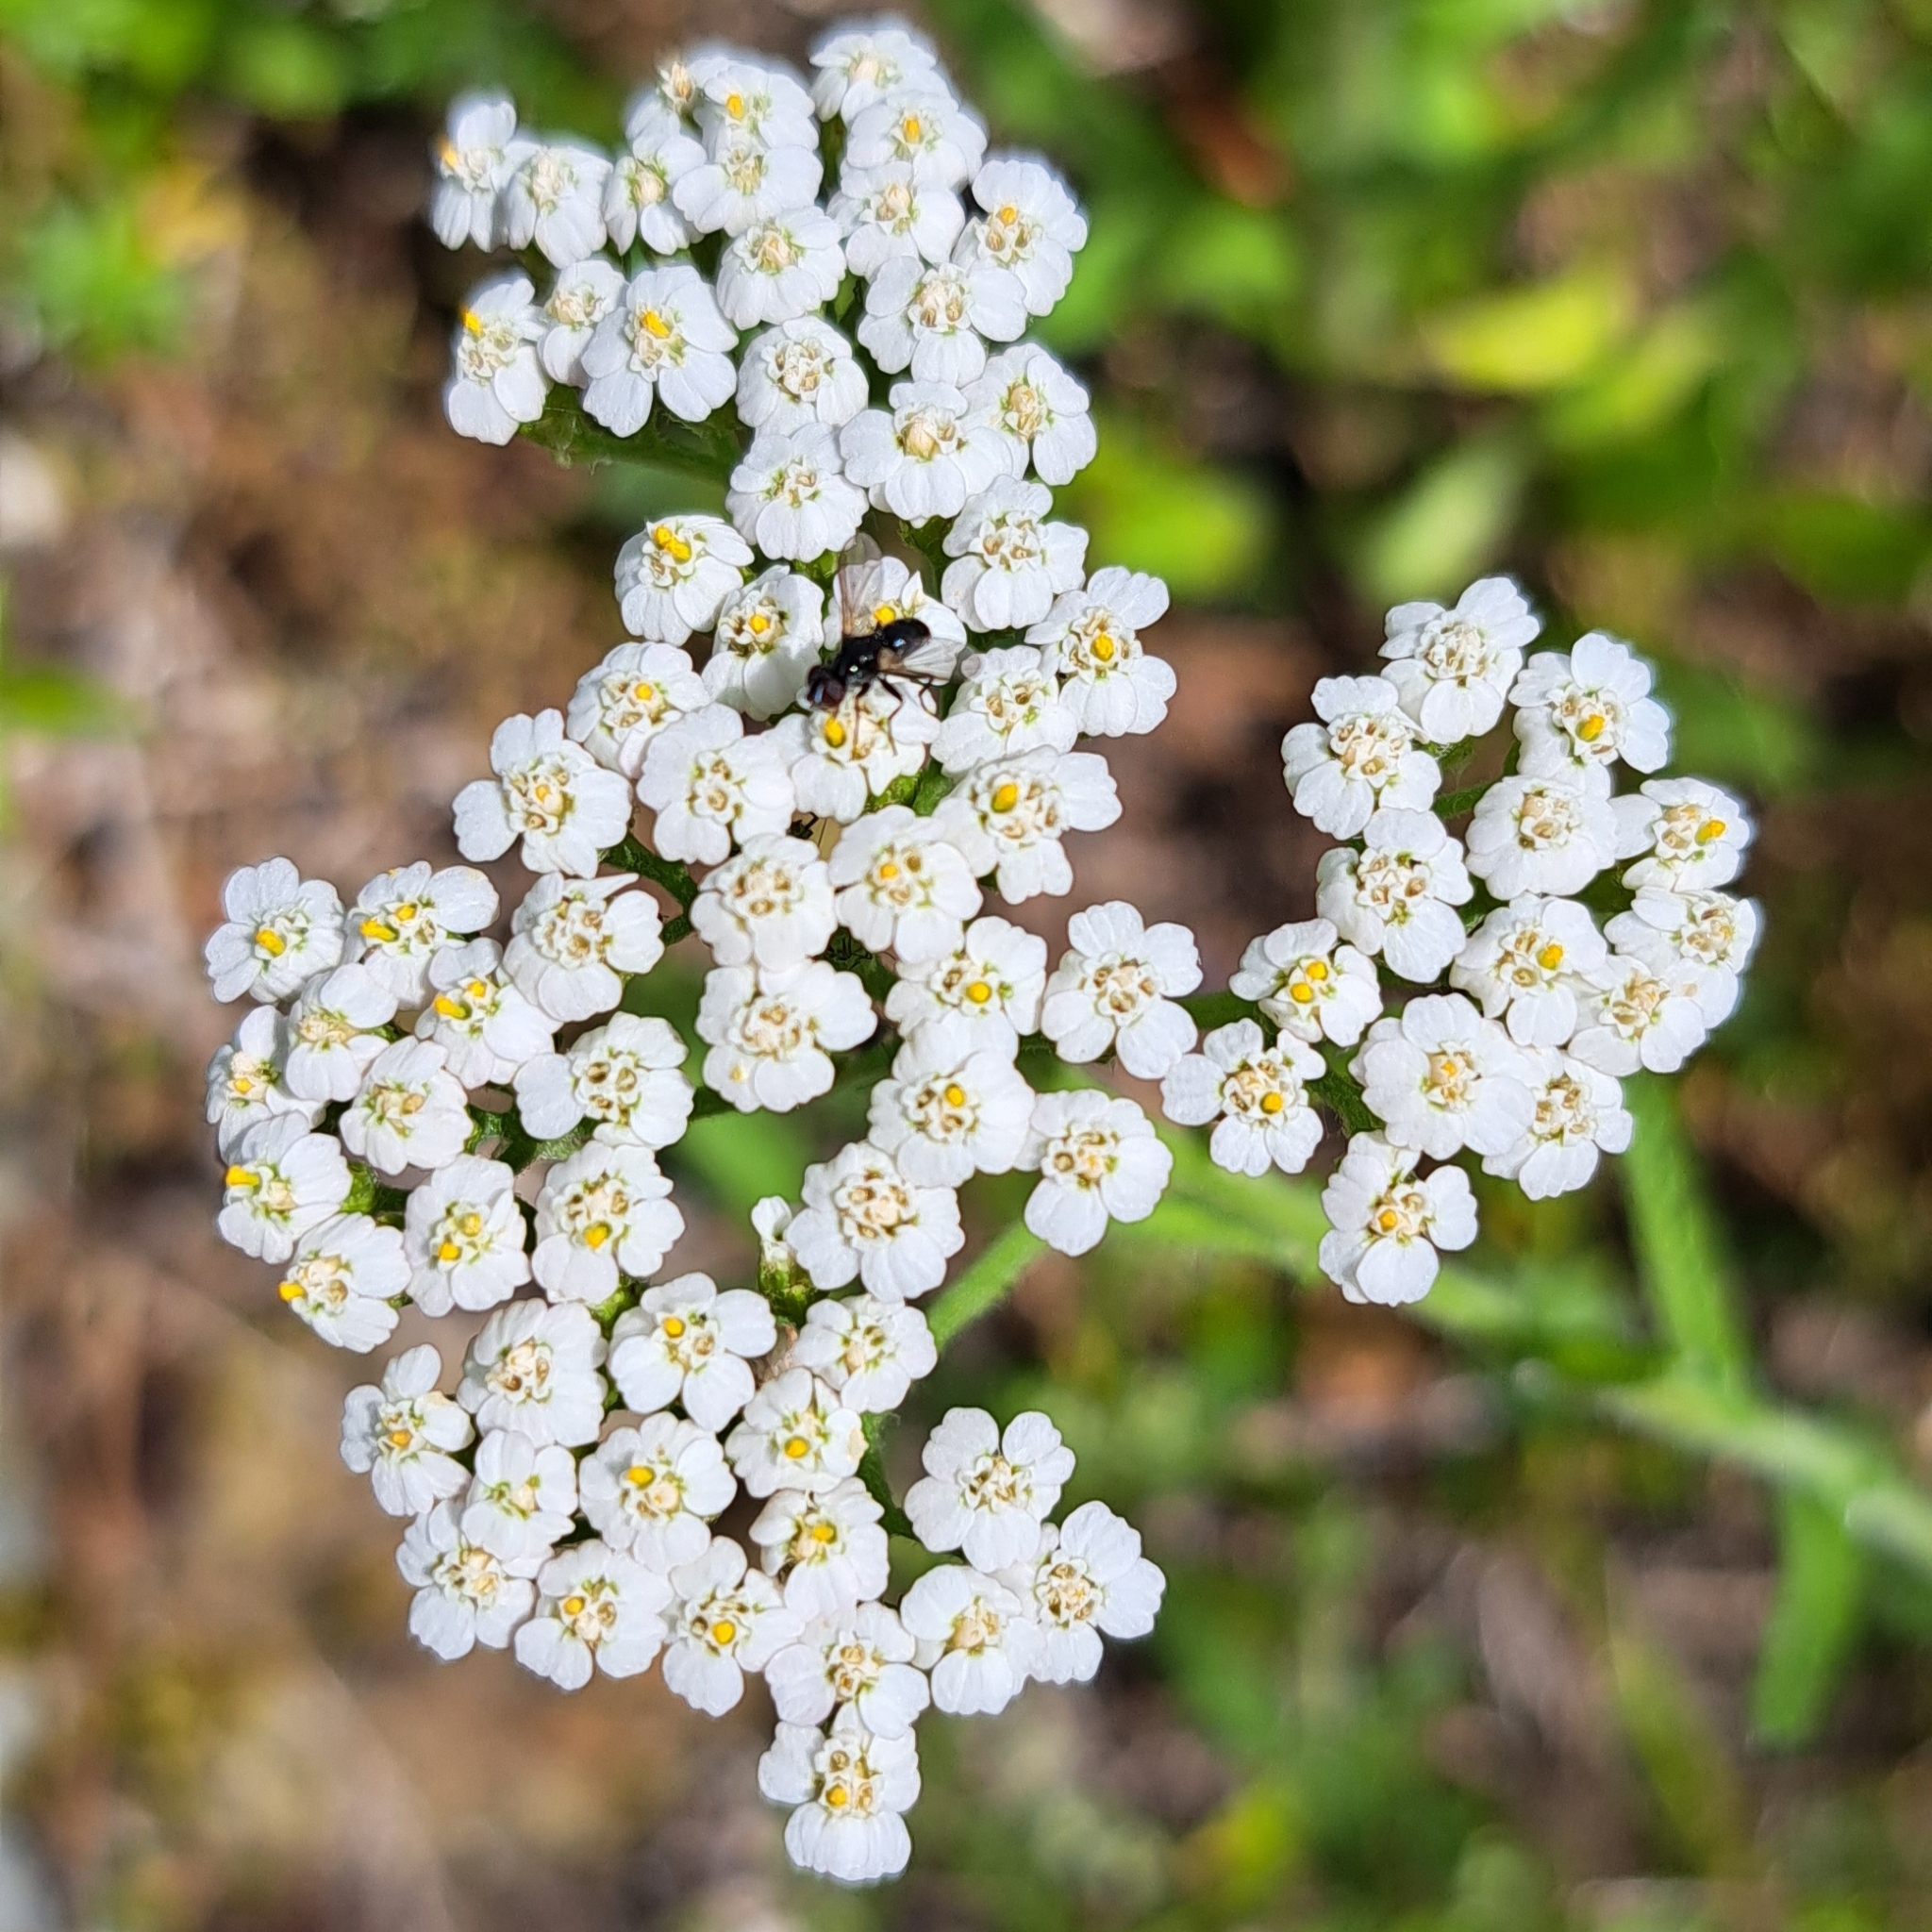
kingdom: Animalia
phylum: Arthropoda
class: Insecta
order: Diptera
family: Tachinidae
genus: Phania
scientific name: Phania funesta
